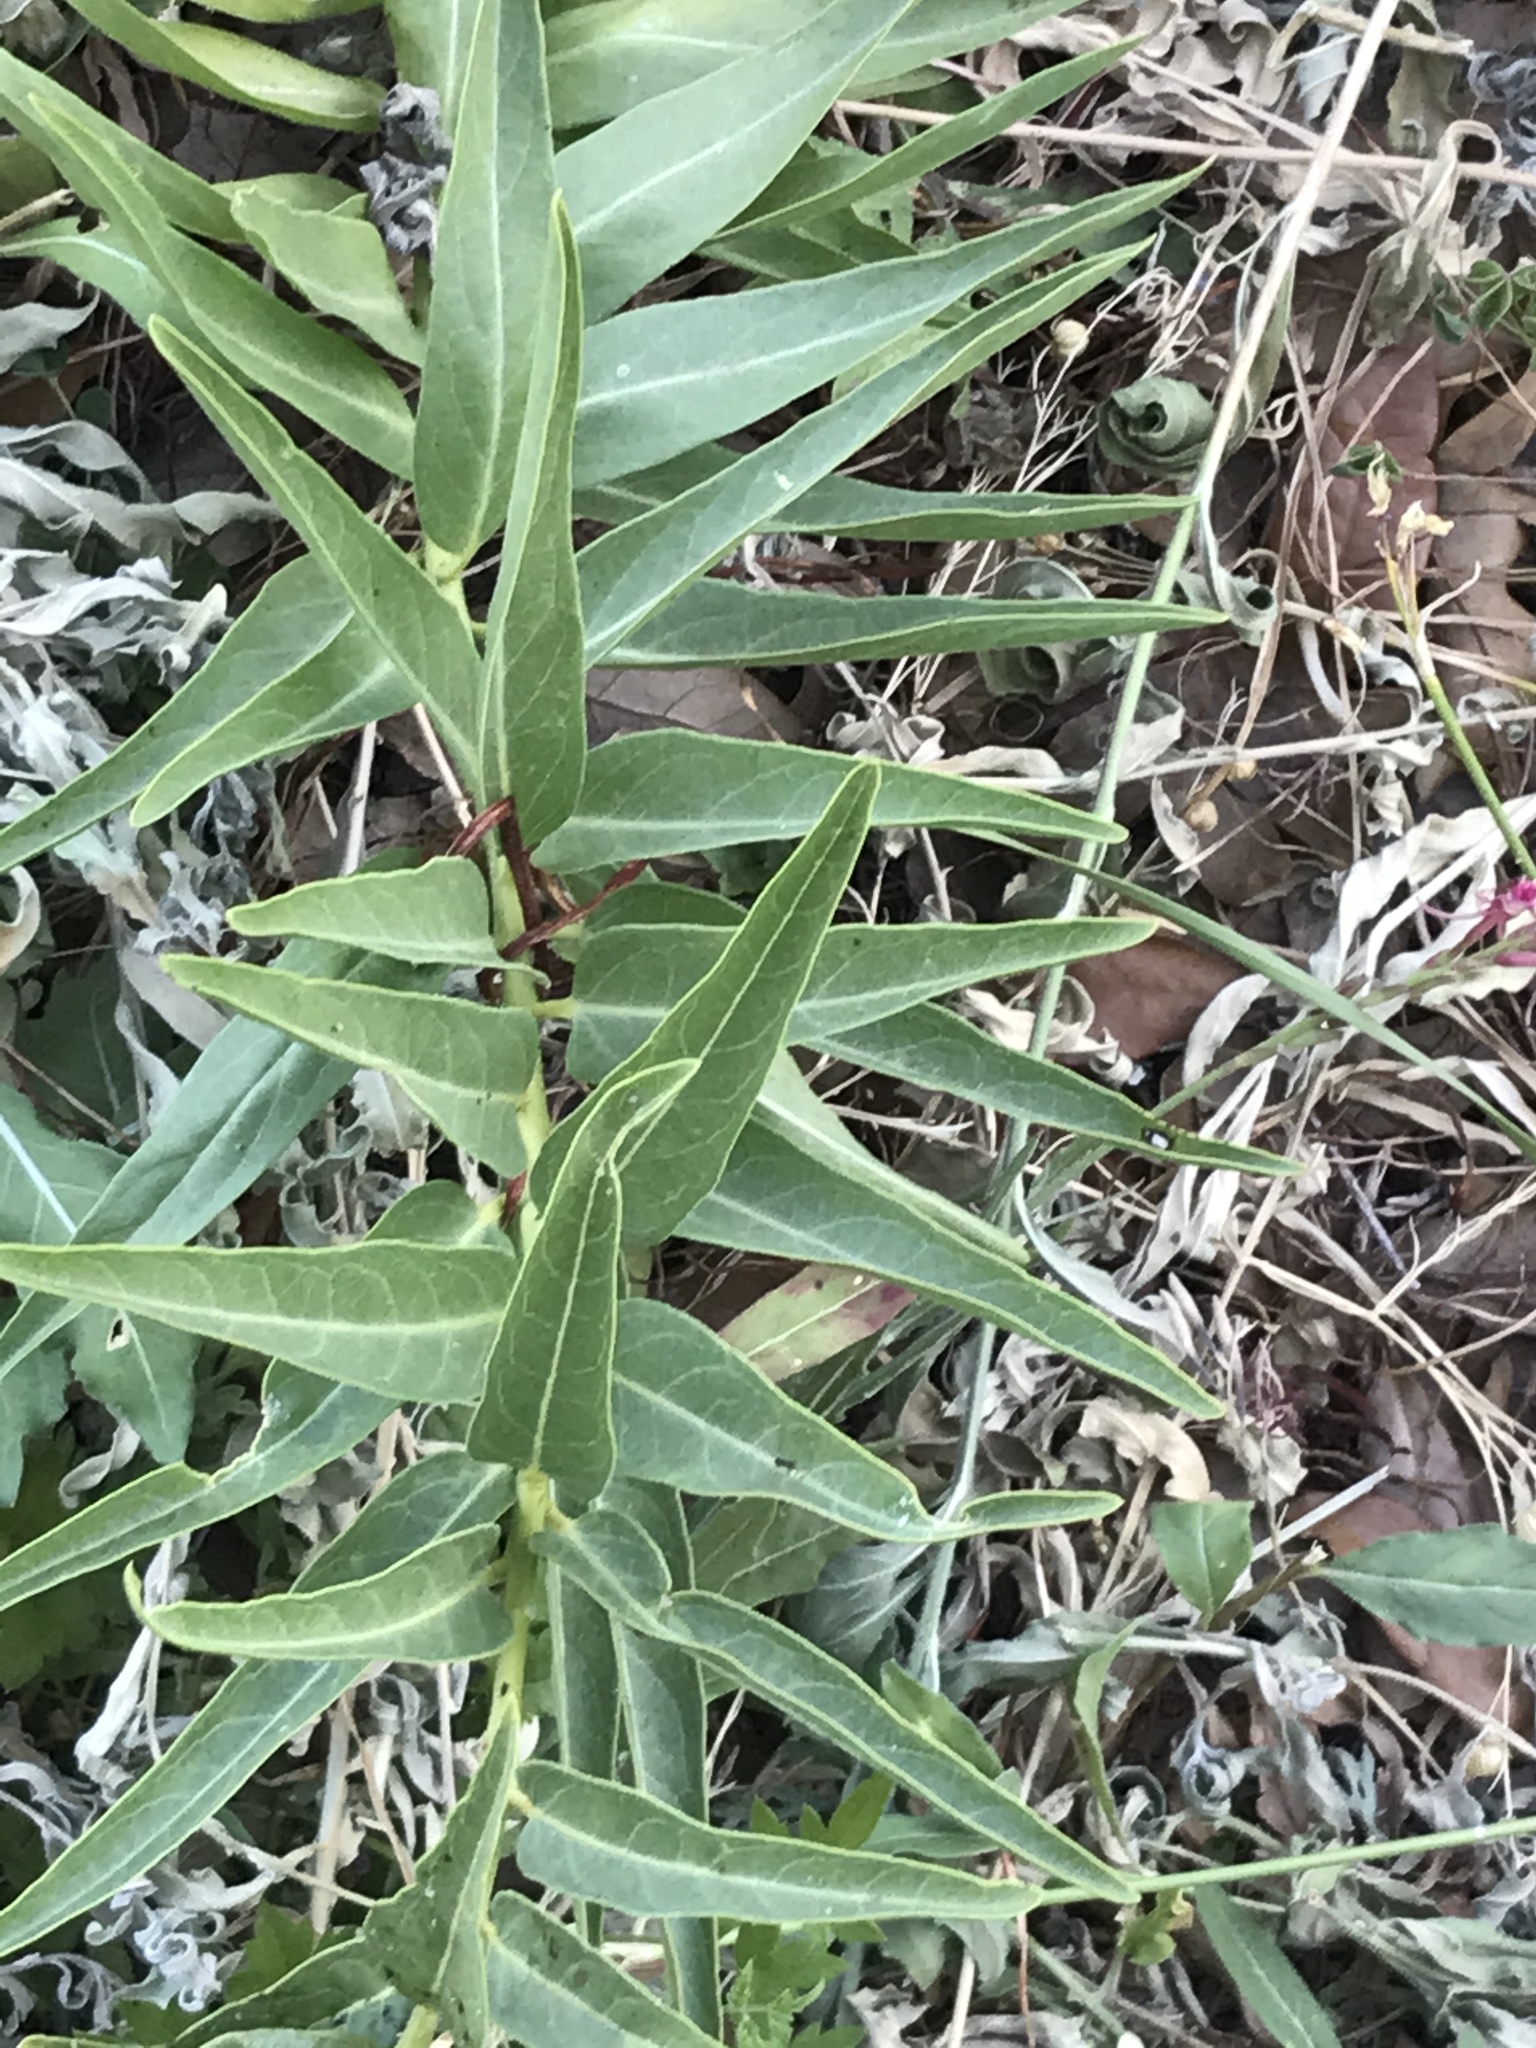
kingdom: Plantae
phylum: Tracheophyta
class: Magnoliopsida
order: Gentianales
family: Apocynaceae
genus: Asclepias
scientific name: Asclepias asperula
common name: Antelope horns
